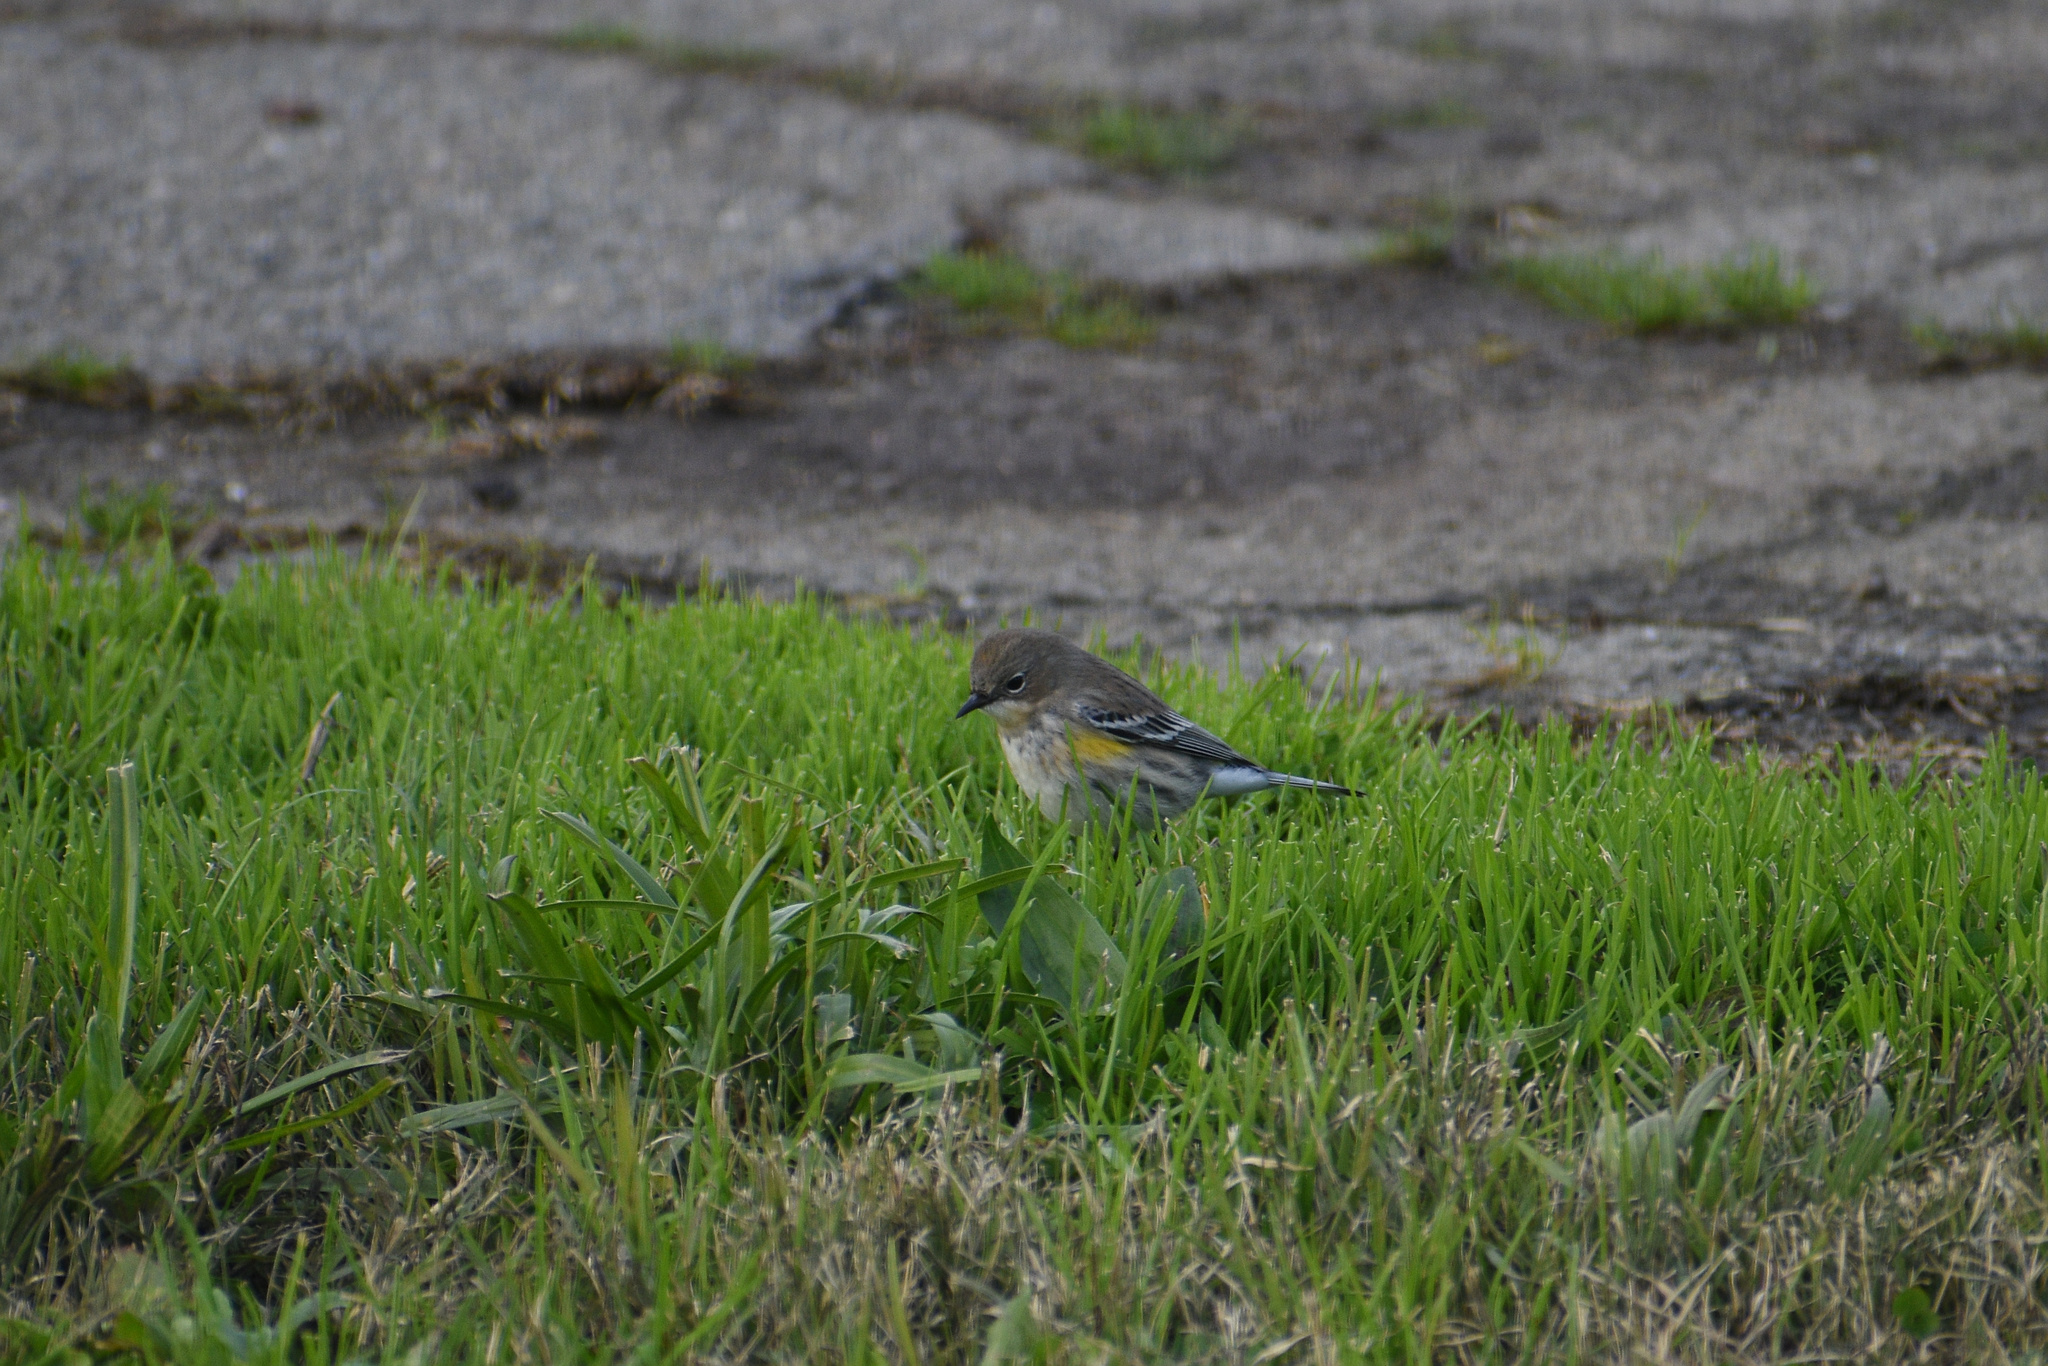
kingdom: Animalia
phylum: Chordata
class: Aves
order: Passeriformes
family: Parulidae
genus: Setophaga
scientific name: Setophaga coronata
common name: Myrtle warbler
